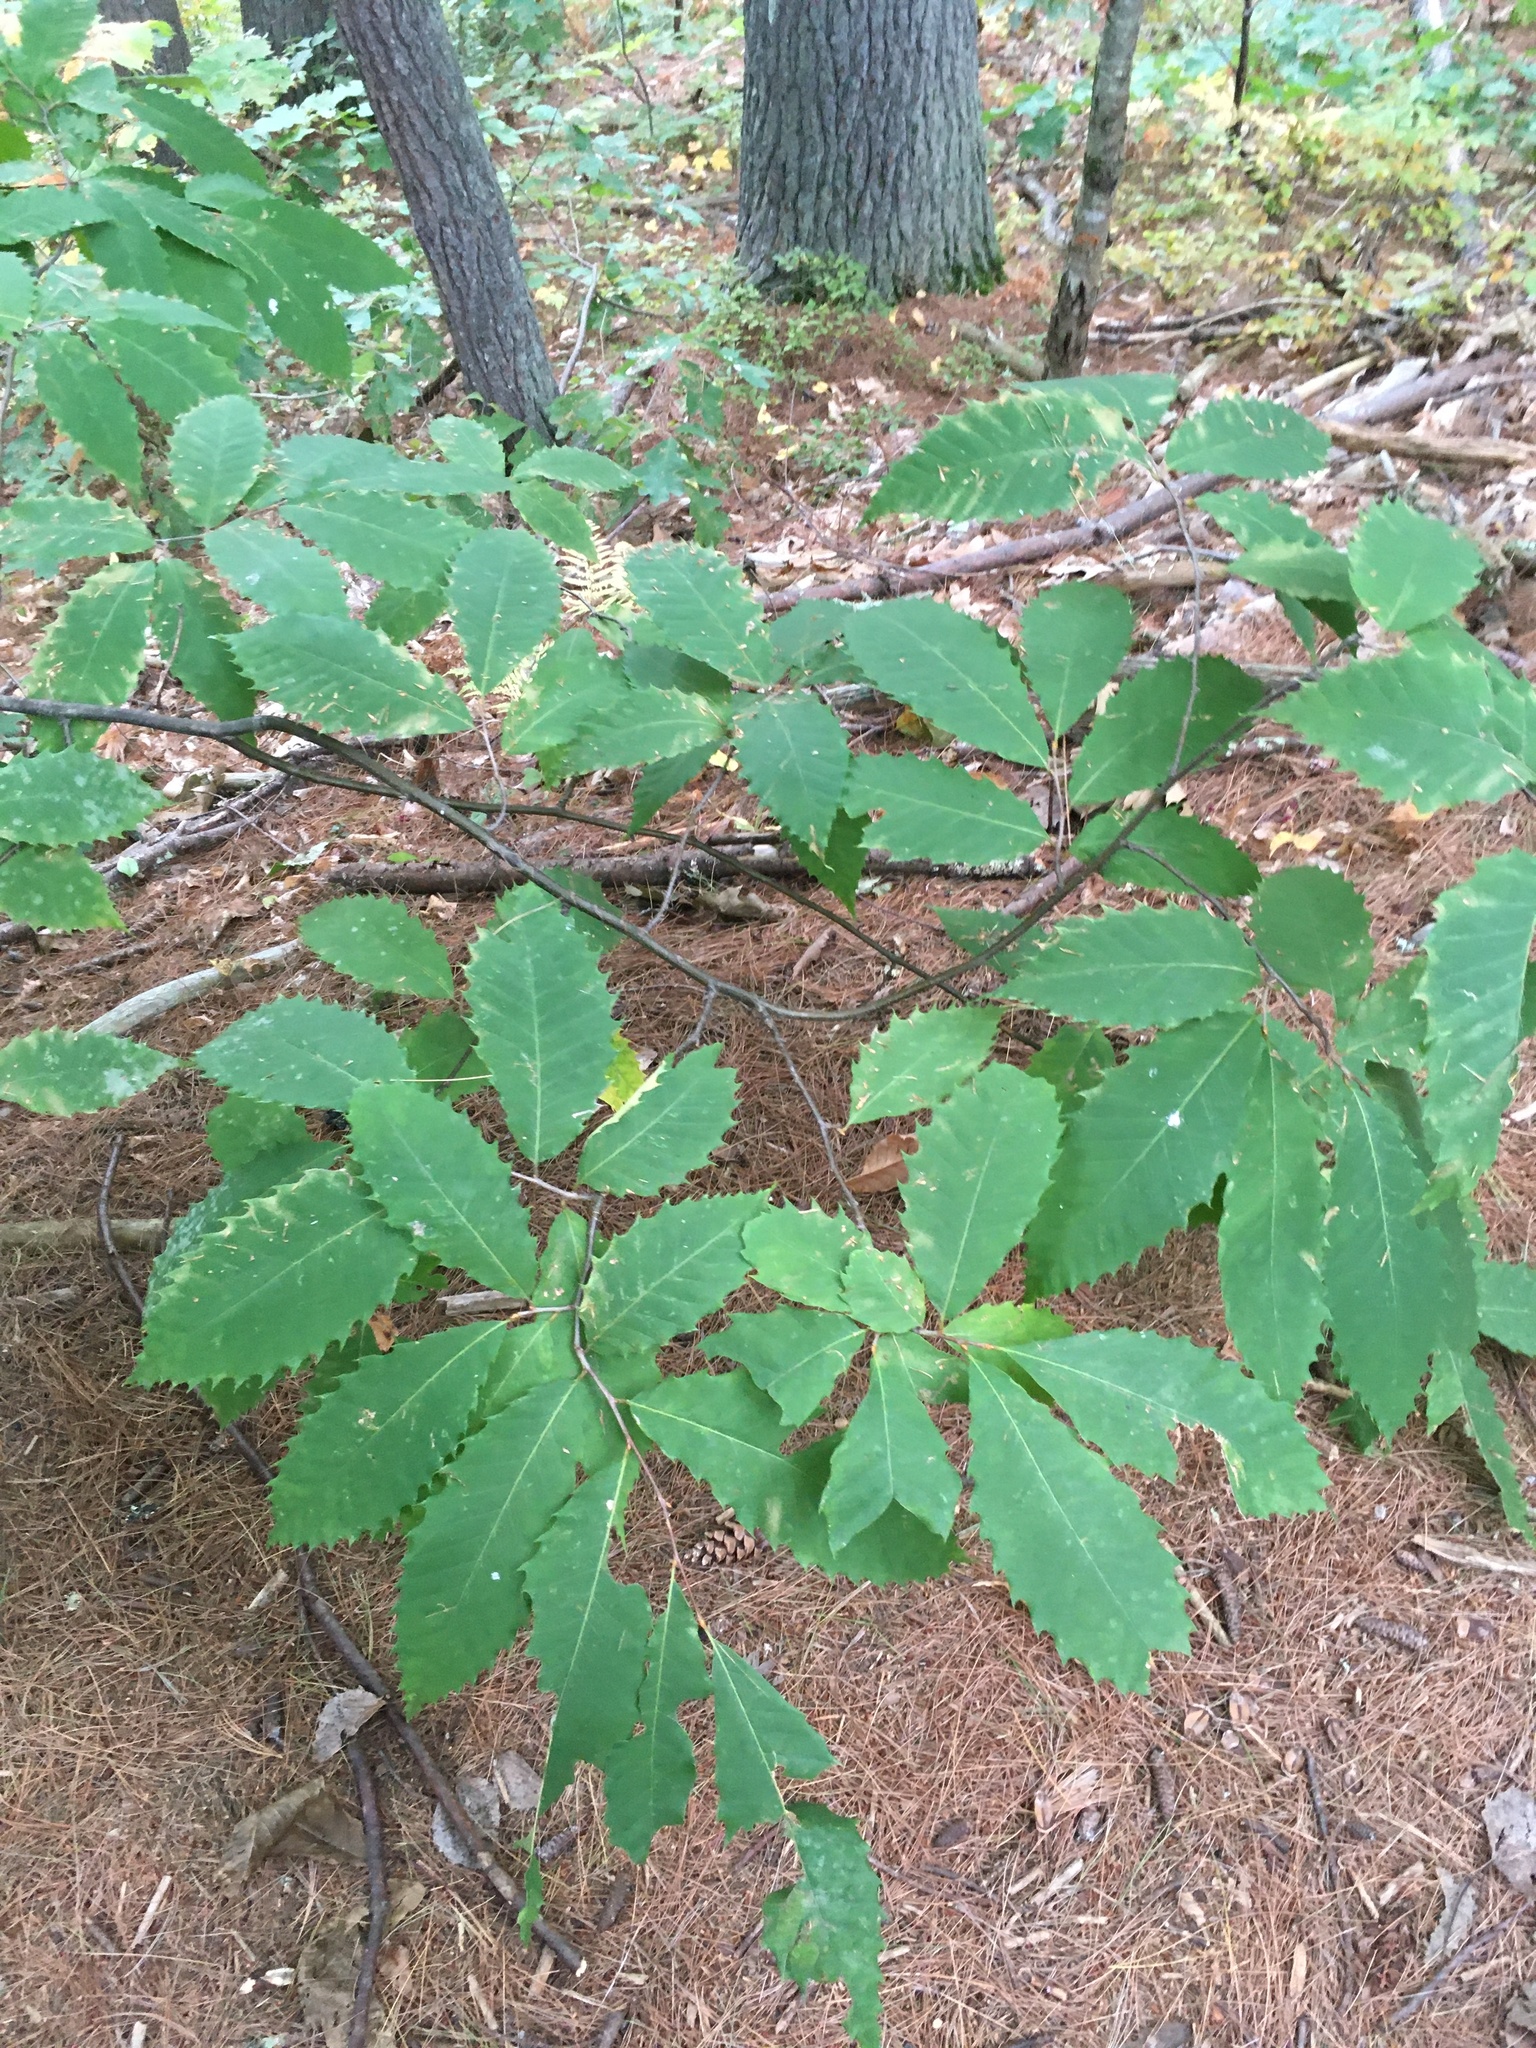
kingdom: Plantae
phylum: Tracheophyta
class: Magnoliopsida
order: Fagales
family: Fagaceae
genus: Castanea
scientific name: Castanea dentata
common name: American chestnut
